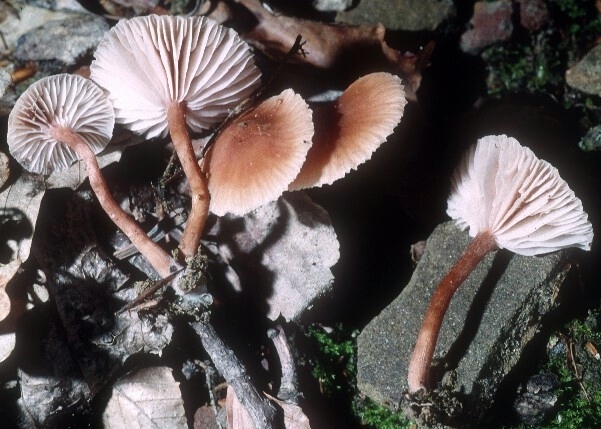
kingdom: Fungi
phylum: Basidiomycota
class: Agaricomycetes
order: Agaricales
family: Hydnangiaceae
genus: Laccaria
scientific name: Laccaria laccata
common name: Deceiver
